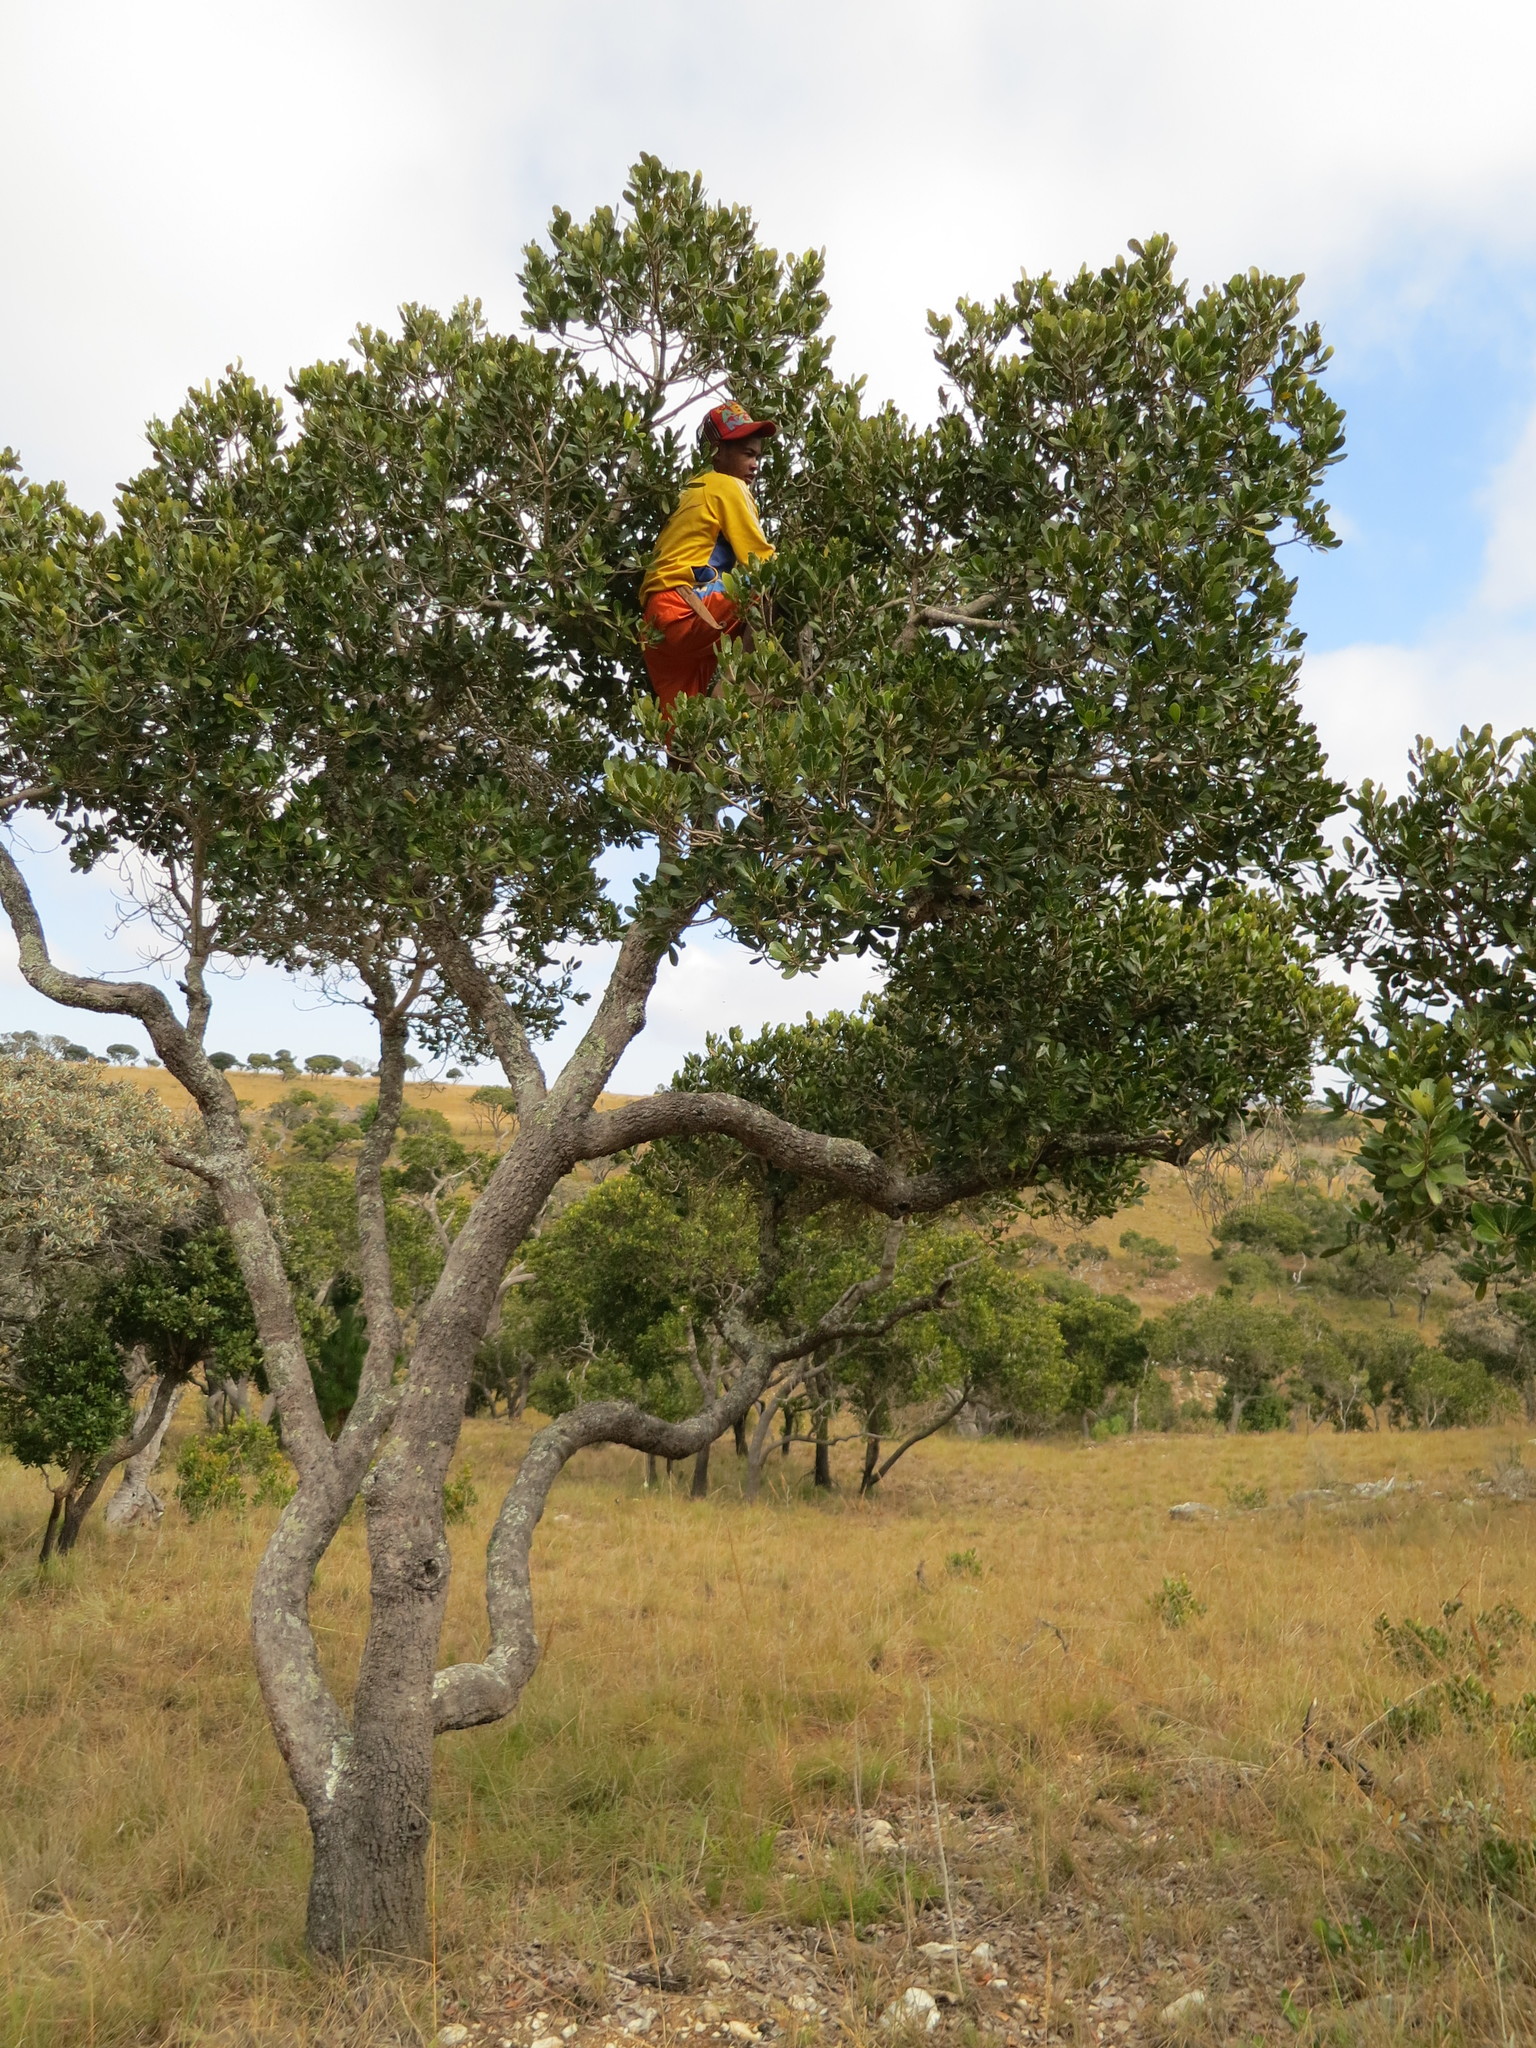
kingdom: Plantae
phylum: Tracheophyta
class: Magnoliopsida
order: Malpighiales
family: Phyllanthaceae
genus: Uapaca
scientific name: Uapaca bojeri
